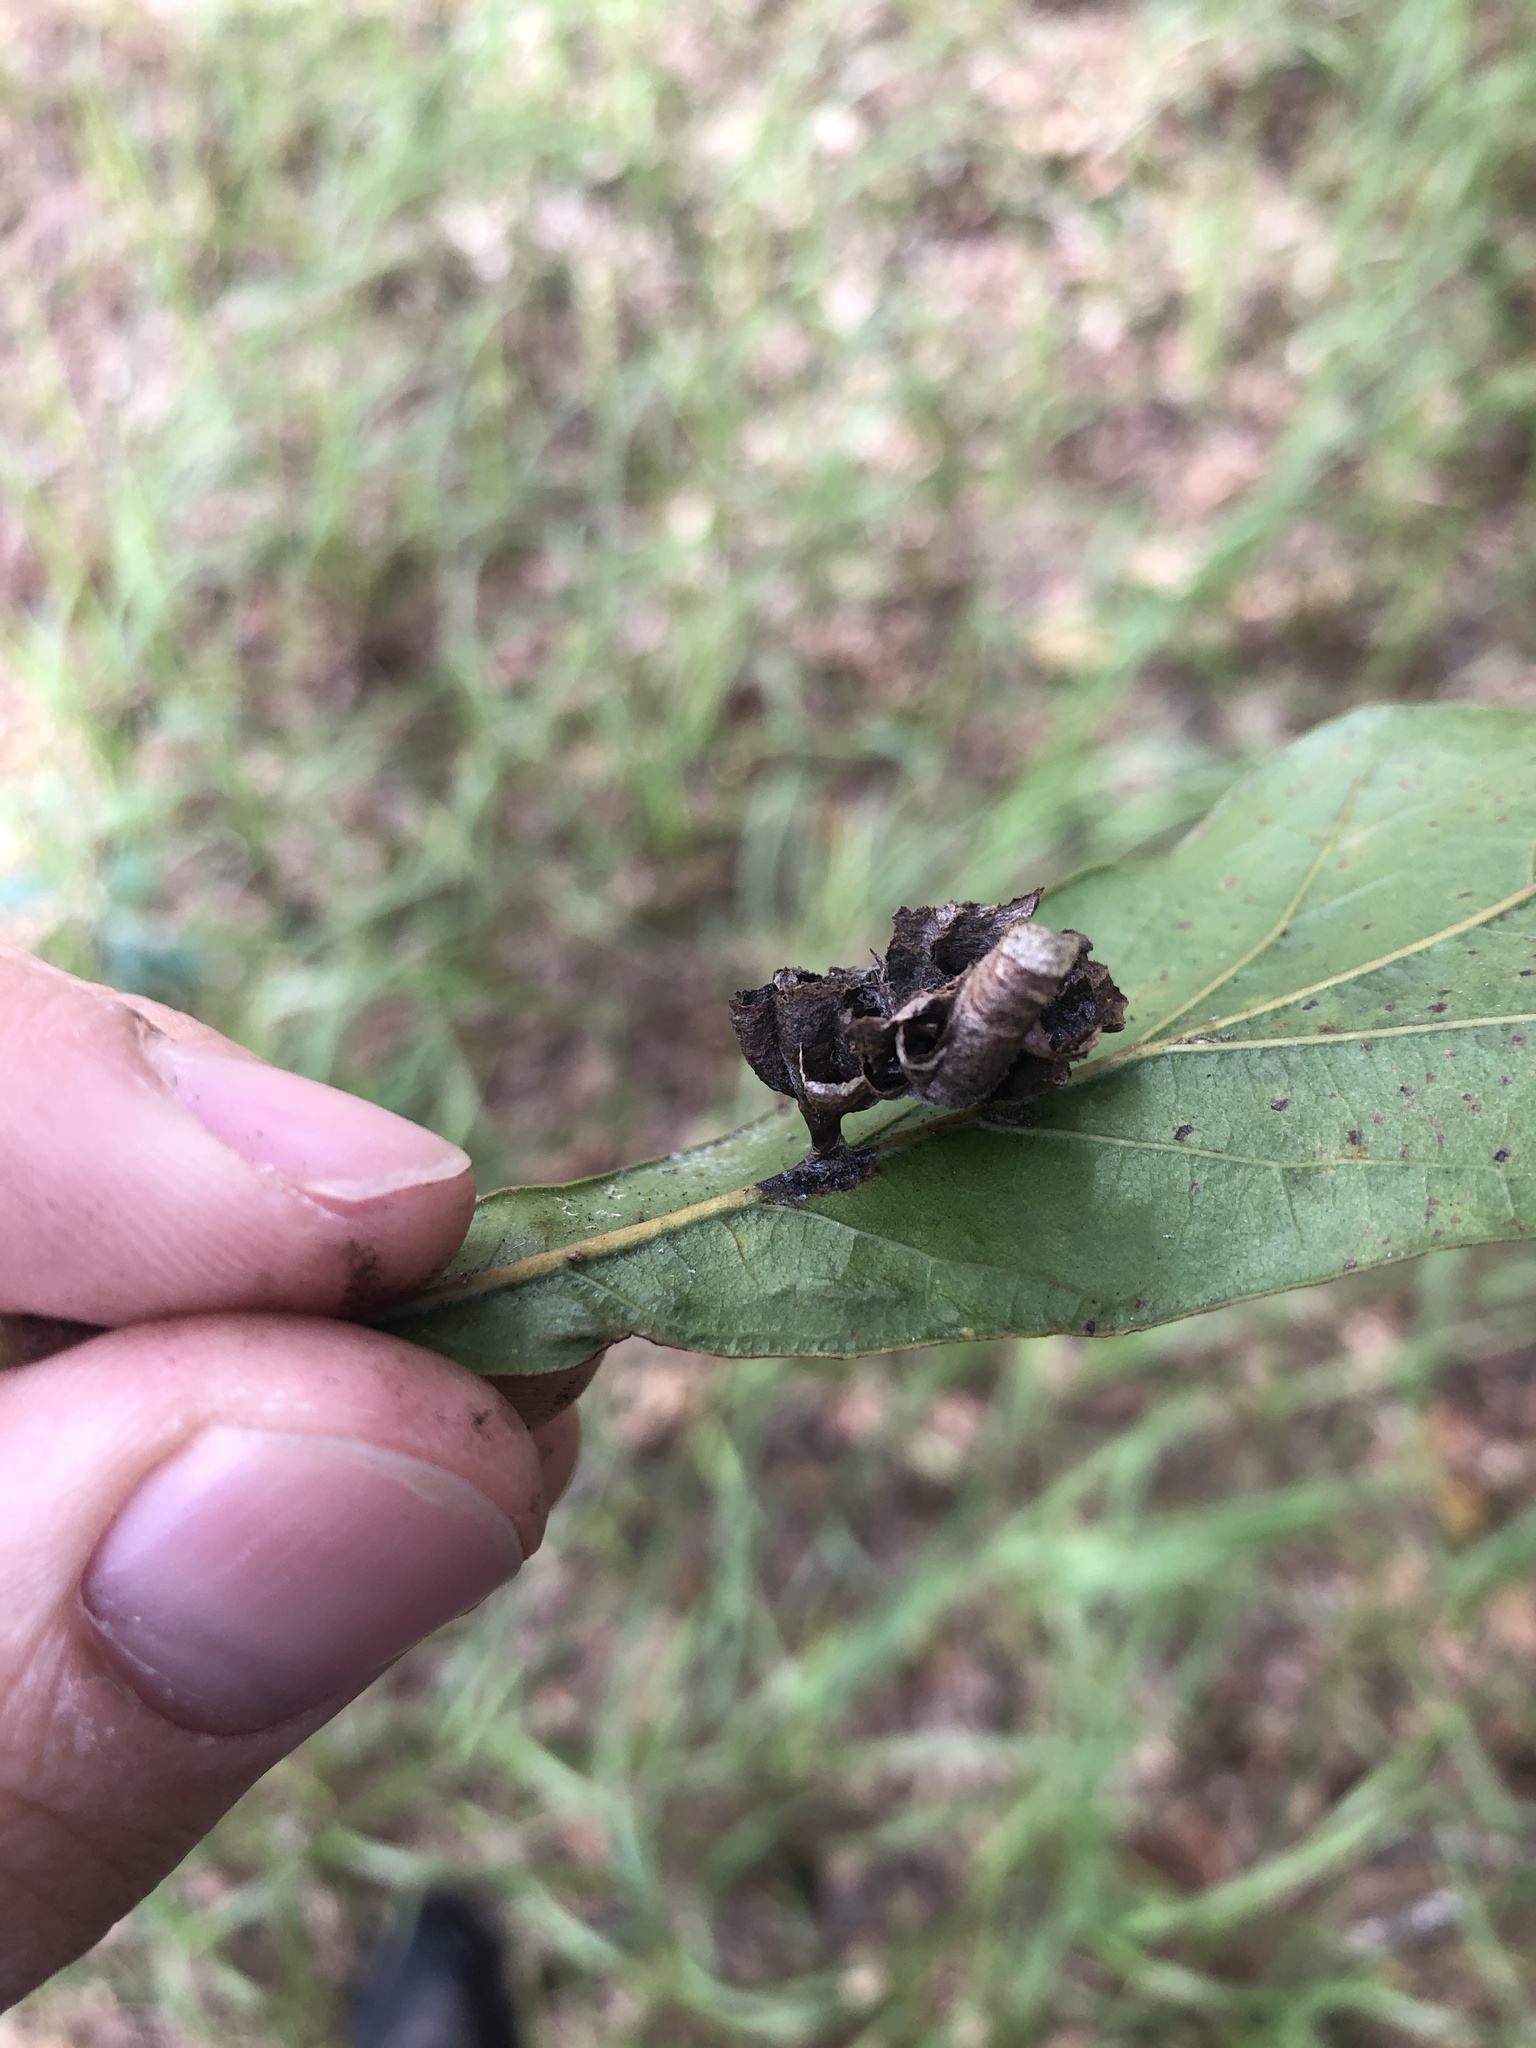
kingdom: Animalia
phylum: Arthropoda
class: Insecta
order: Hymenoptera
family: Vespidae
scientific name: Vespidae
